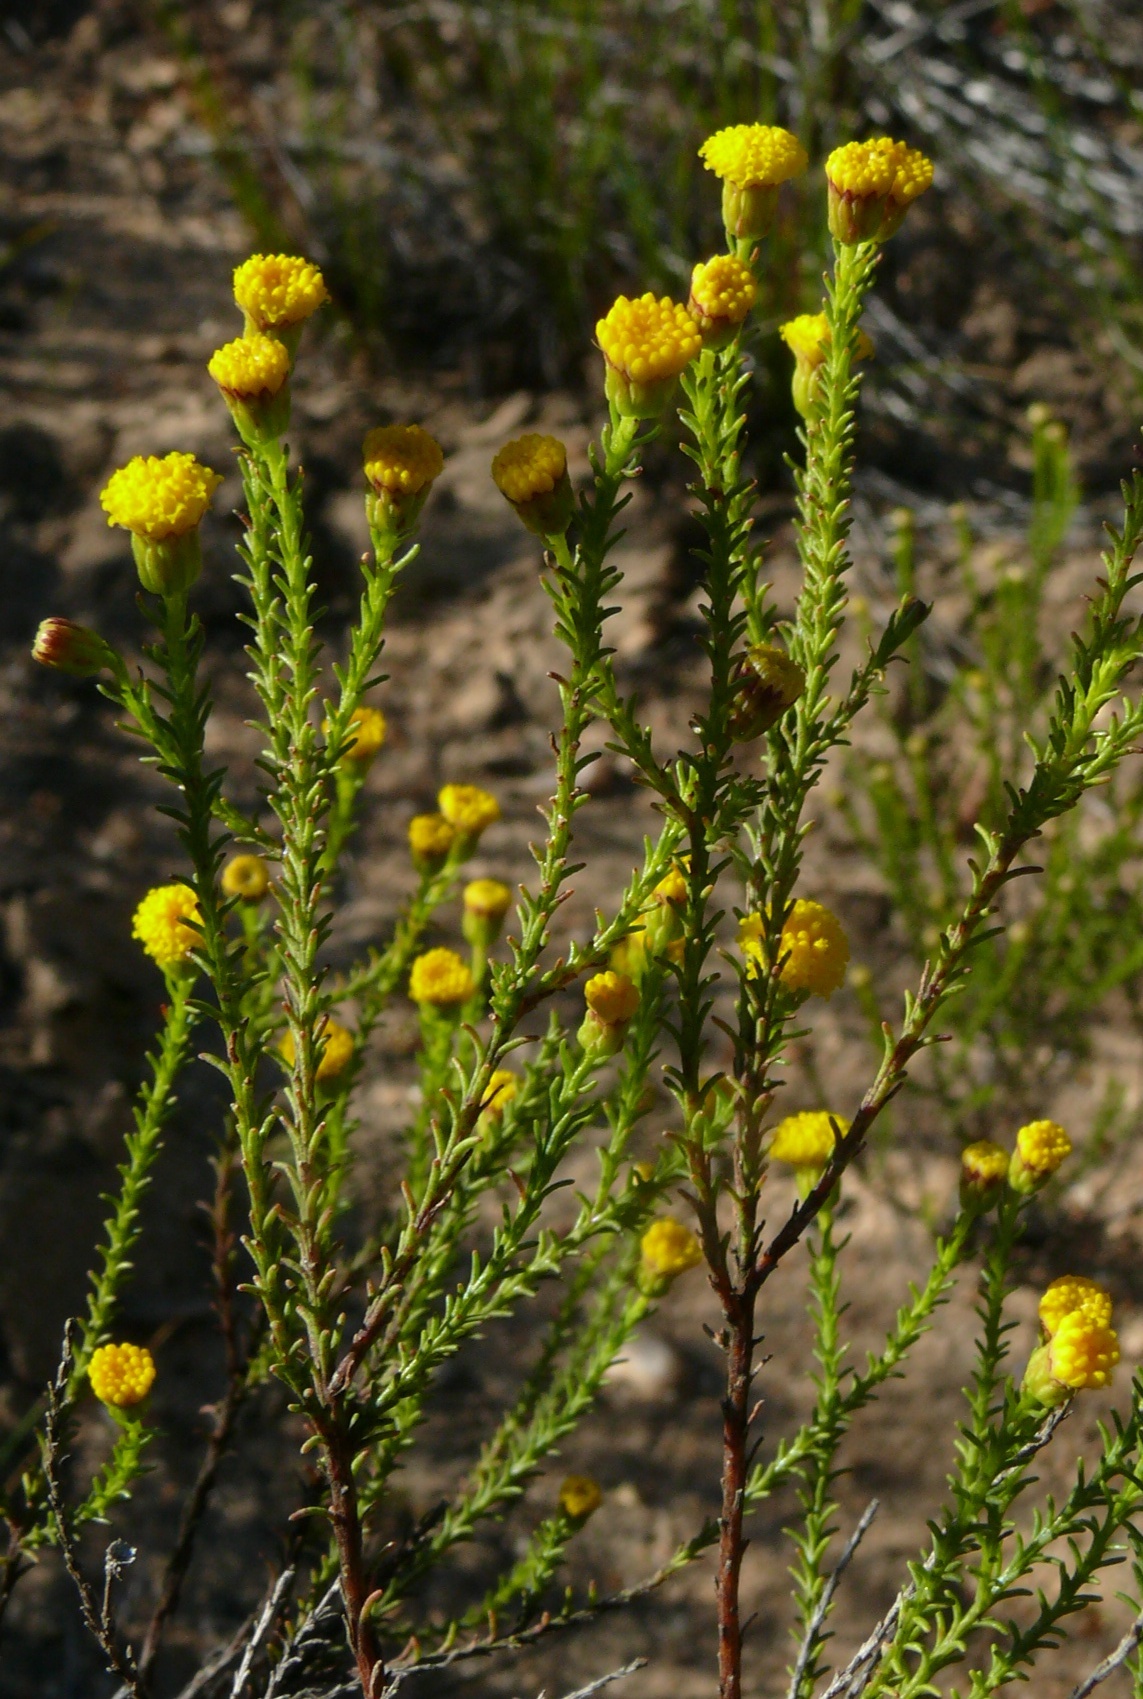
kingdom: Plantae
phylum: Tracheophyta
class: Magnoliopsida
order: Asterales
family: Asteraceae
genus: Chrysocoma
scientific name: Chrysocoma ciliata
